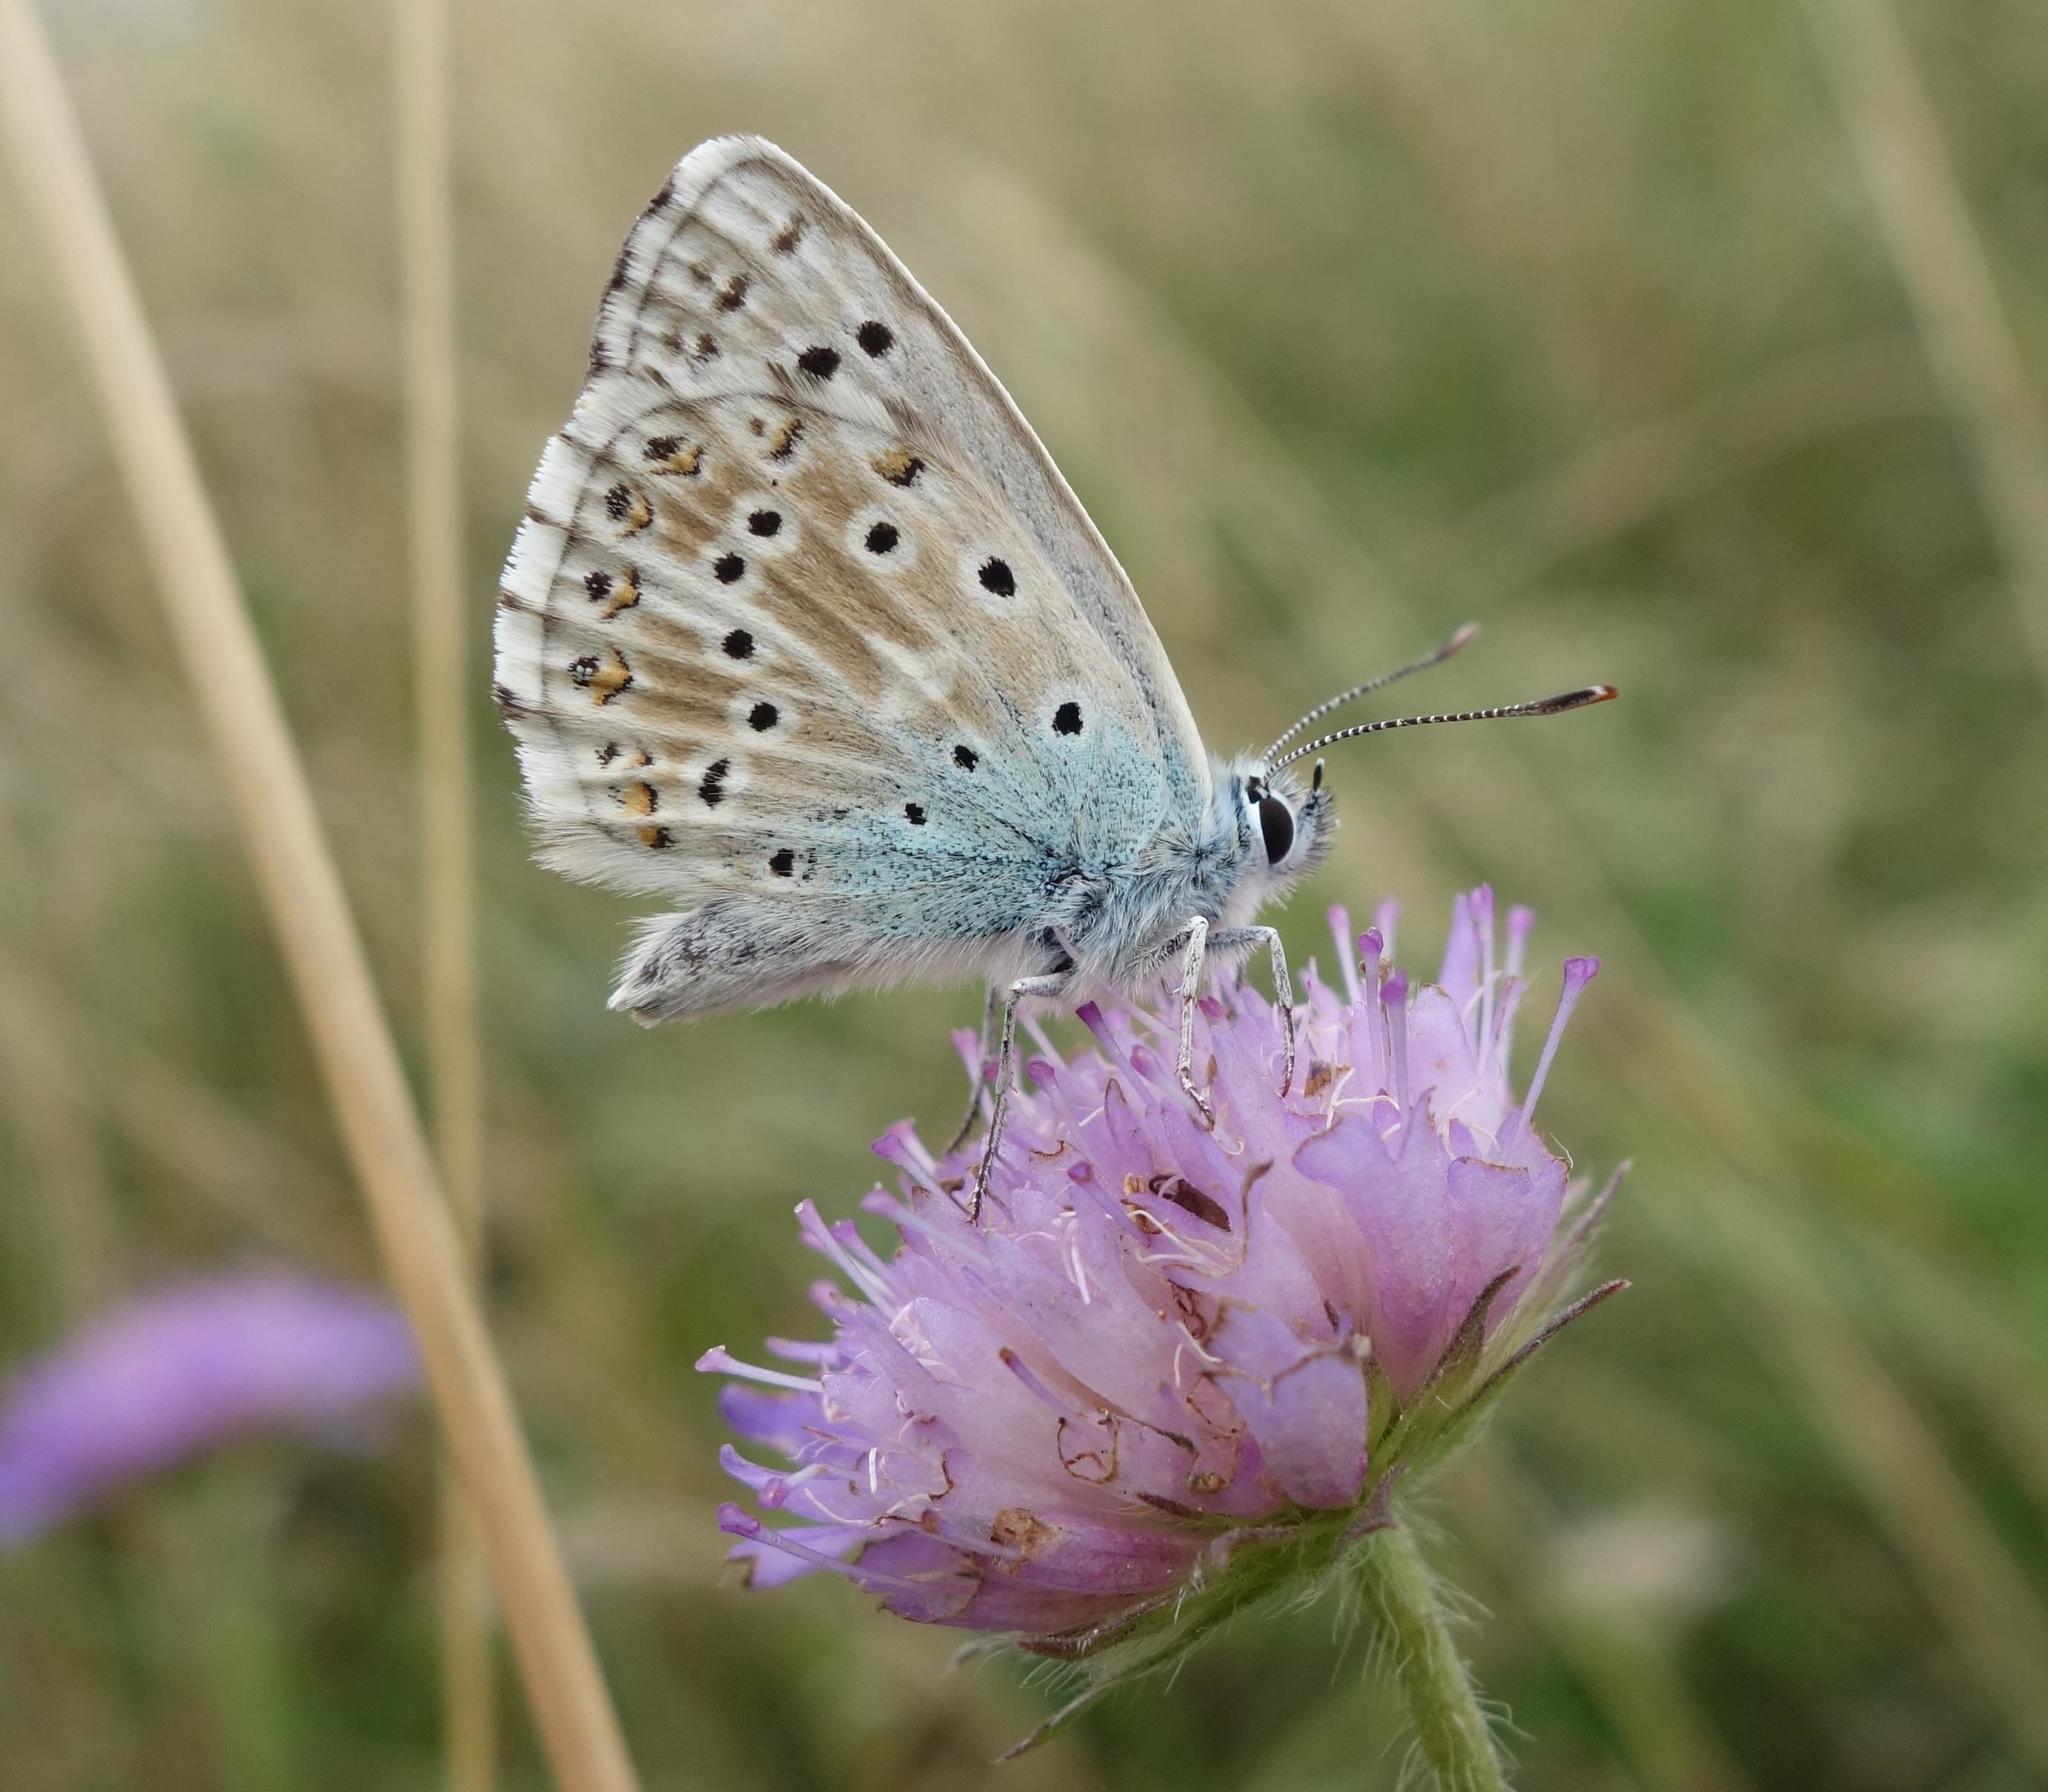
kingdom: Animalia
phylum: Arthropoda
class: Insecta
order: Lepidoptera
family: Lycaenidae
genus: Lysandra
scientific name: Lysandra coridon
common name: Chalkhill blue
